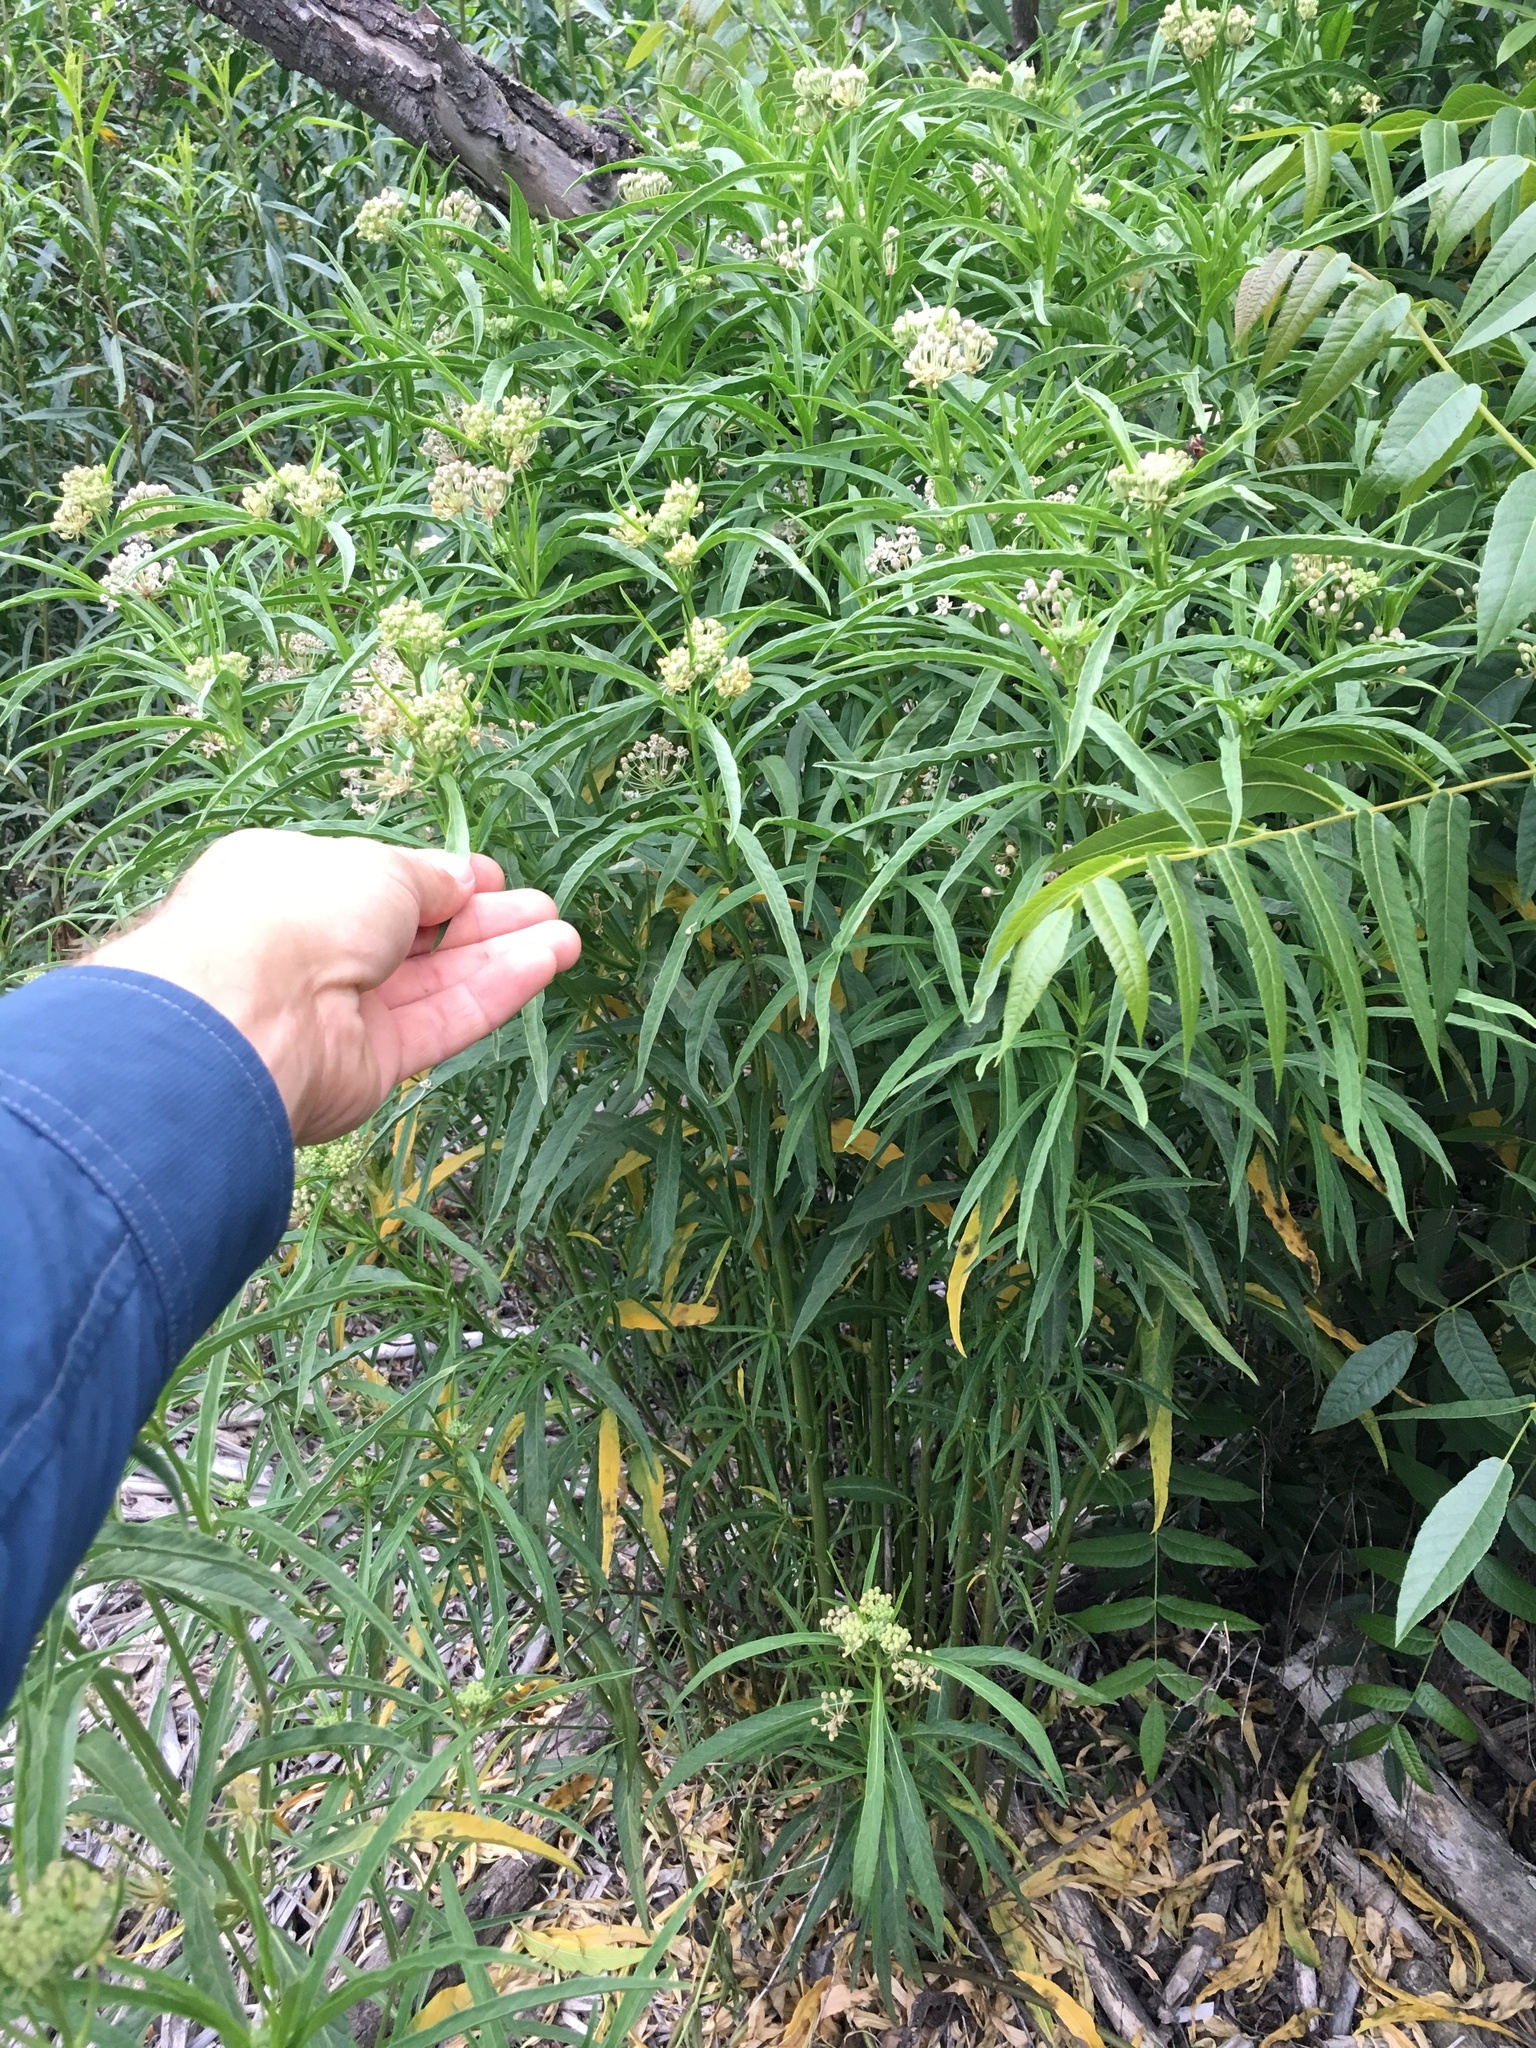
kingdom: Plantae
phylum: Tracheophyta
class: Magnoliopsida
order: Gentianales
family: Apocynaceae
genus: Asclepias
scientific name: Asclepias fascicularis
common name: Mexican milkweed
